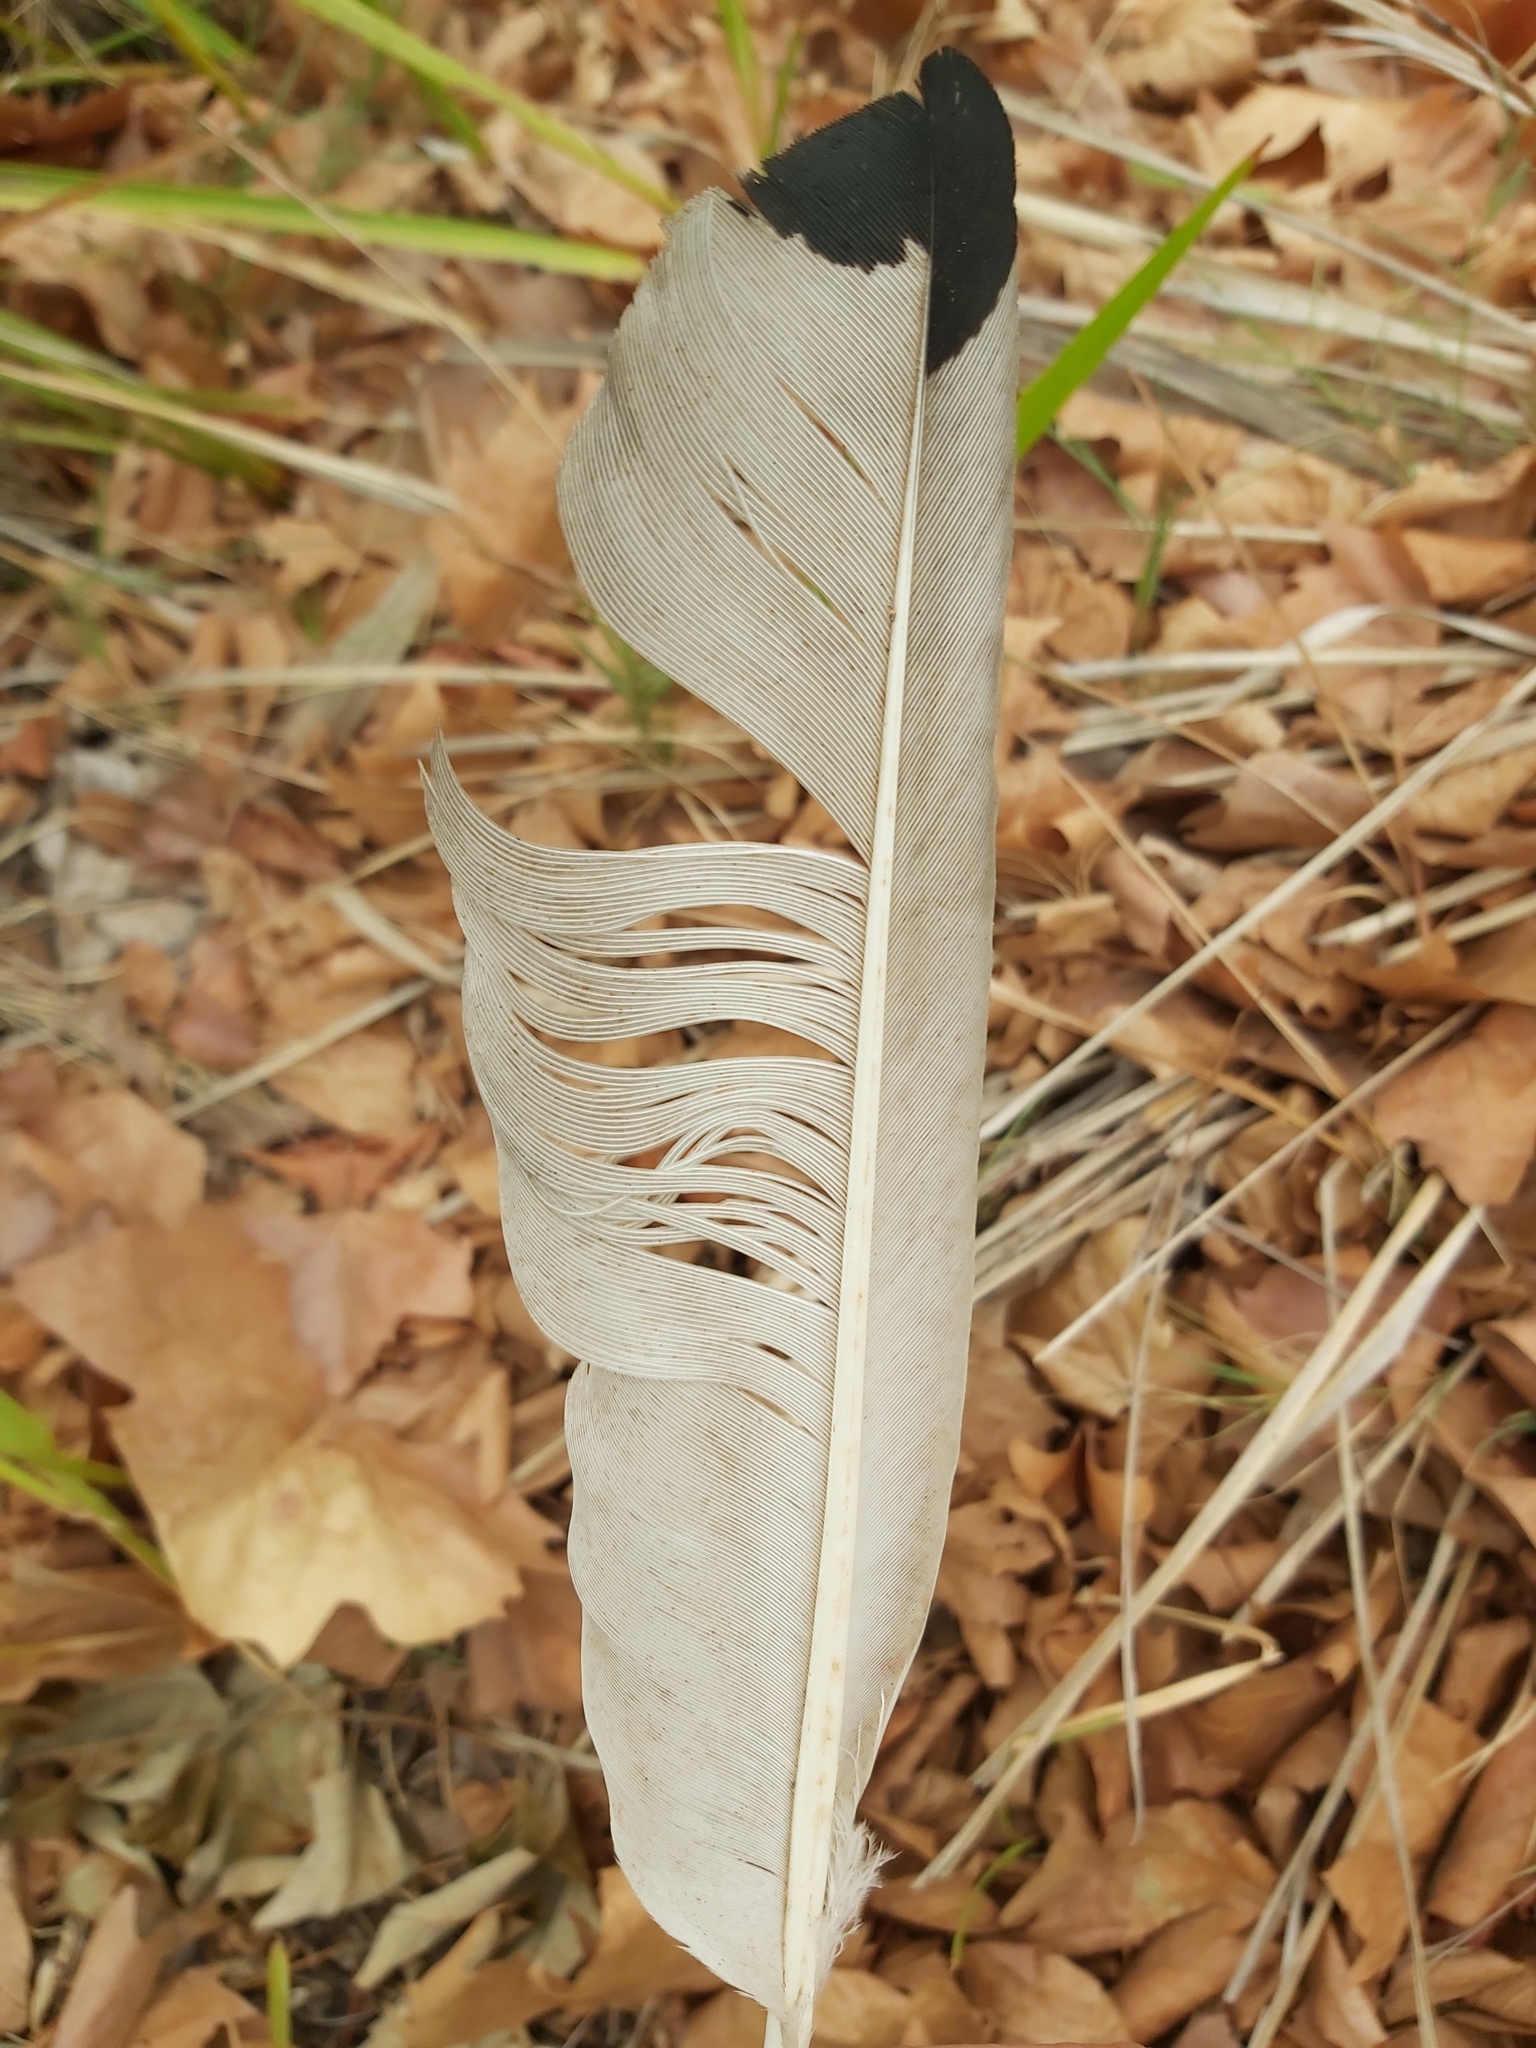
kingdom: Animalia
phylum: Chordata
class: Aves
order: Pelecaniformes
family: Threskiornithidae
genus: Threskiornis
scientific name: Threskiornis molucca
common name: Australian white ibis
